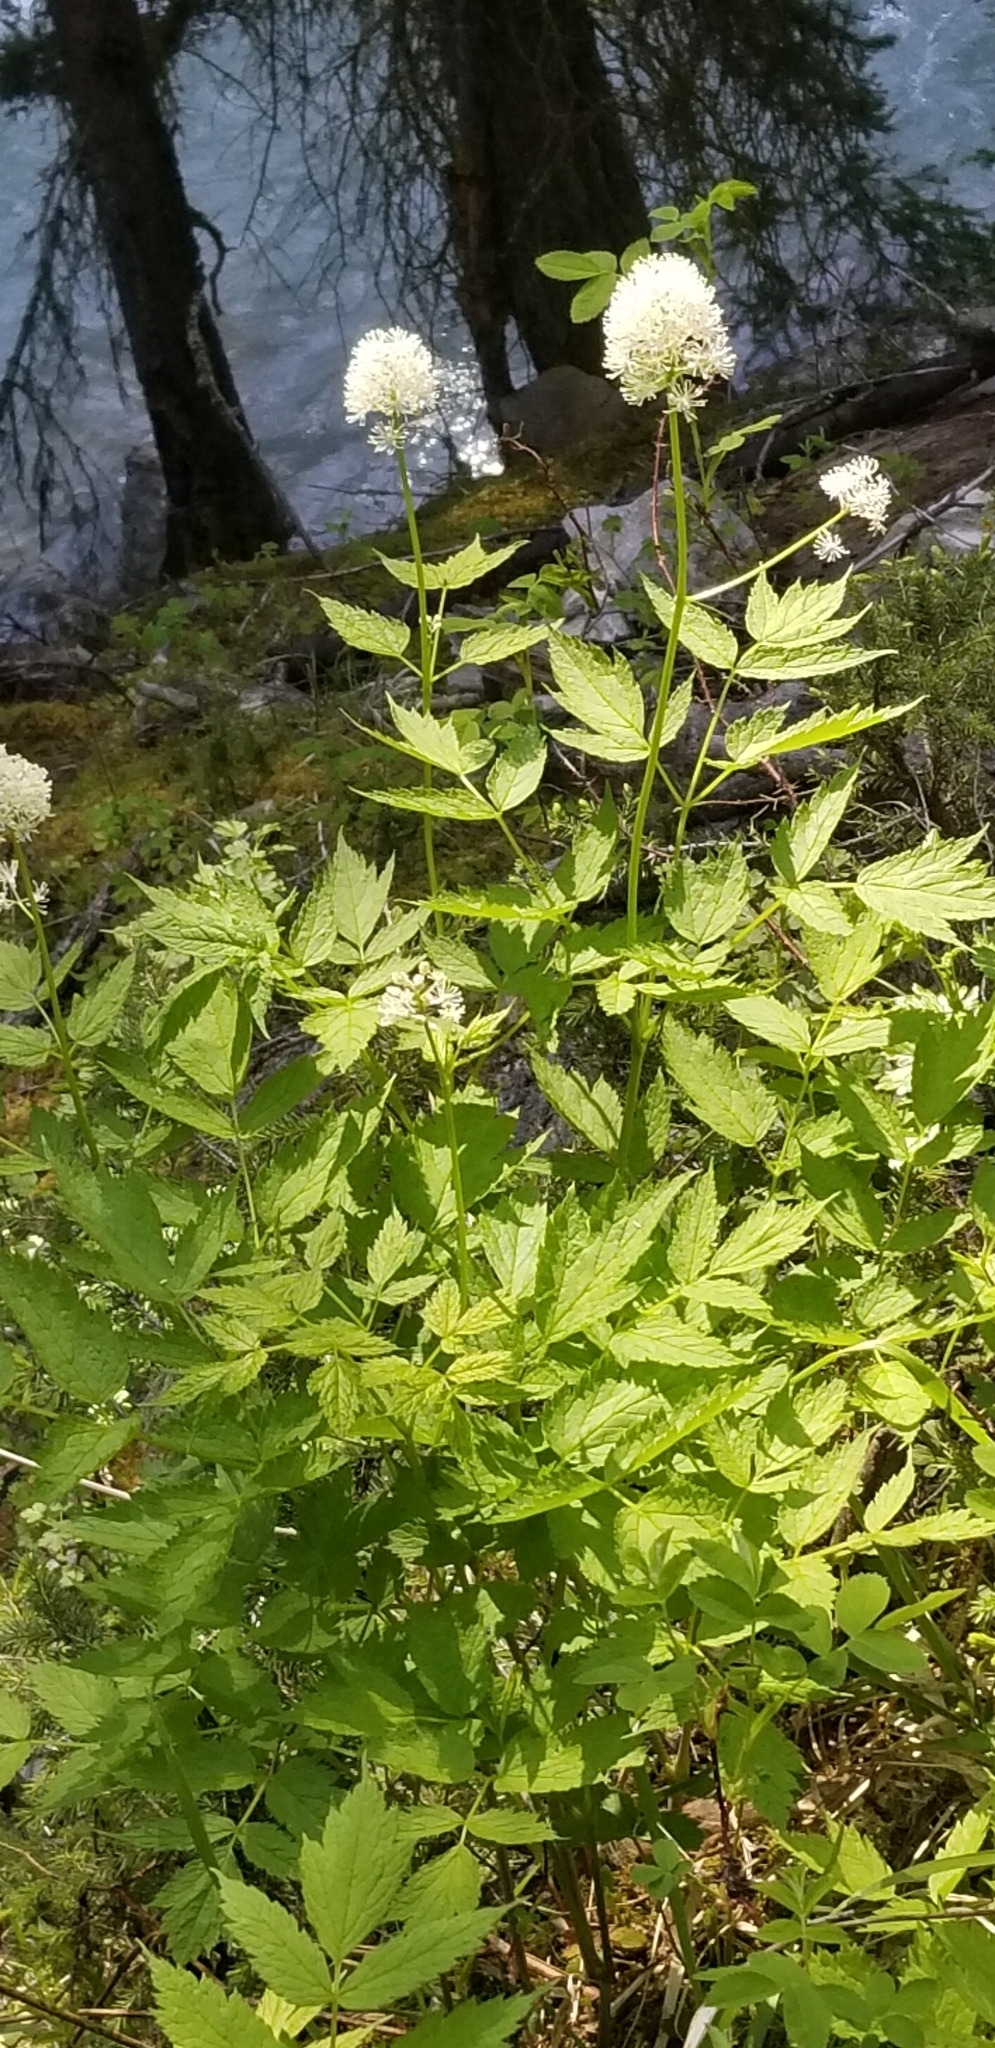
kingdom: Plantae
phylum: Tracheophyta
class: Magnoliopsida
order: Ranunculales
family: Ranunculaceae
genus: Actaea
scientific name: Actaea rubra
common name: Red baneberry
